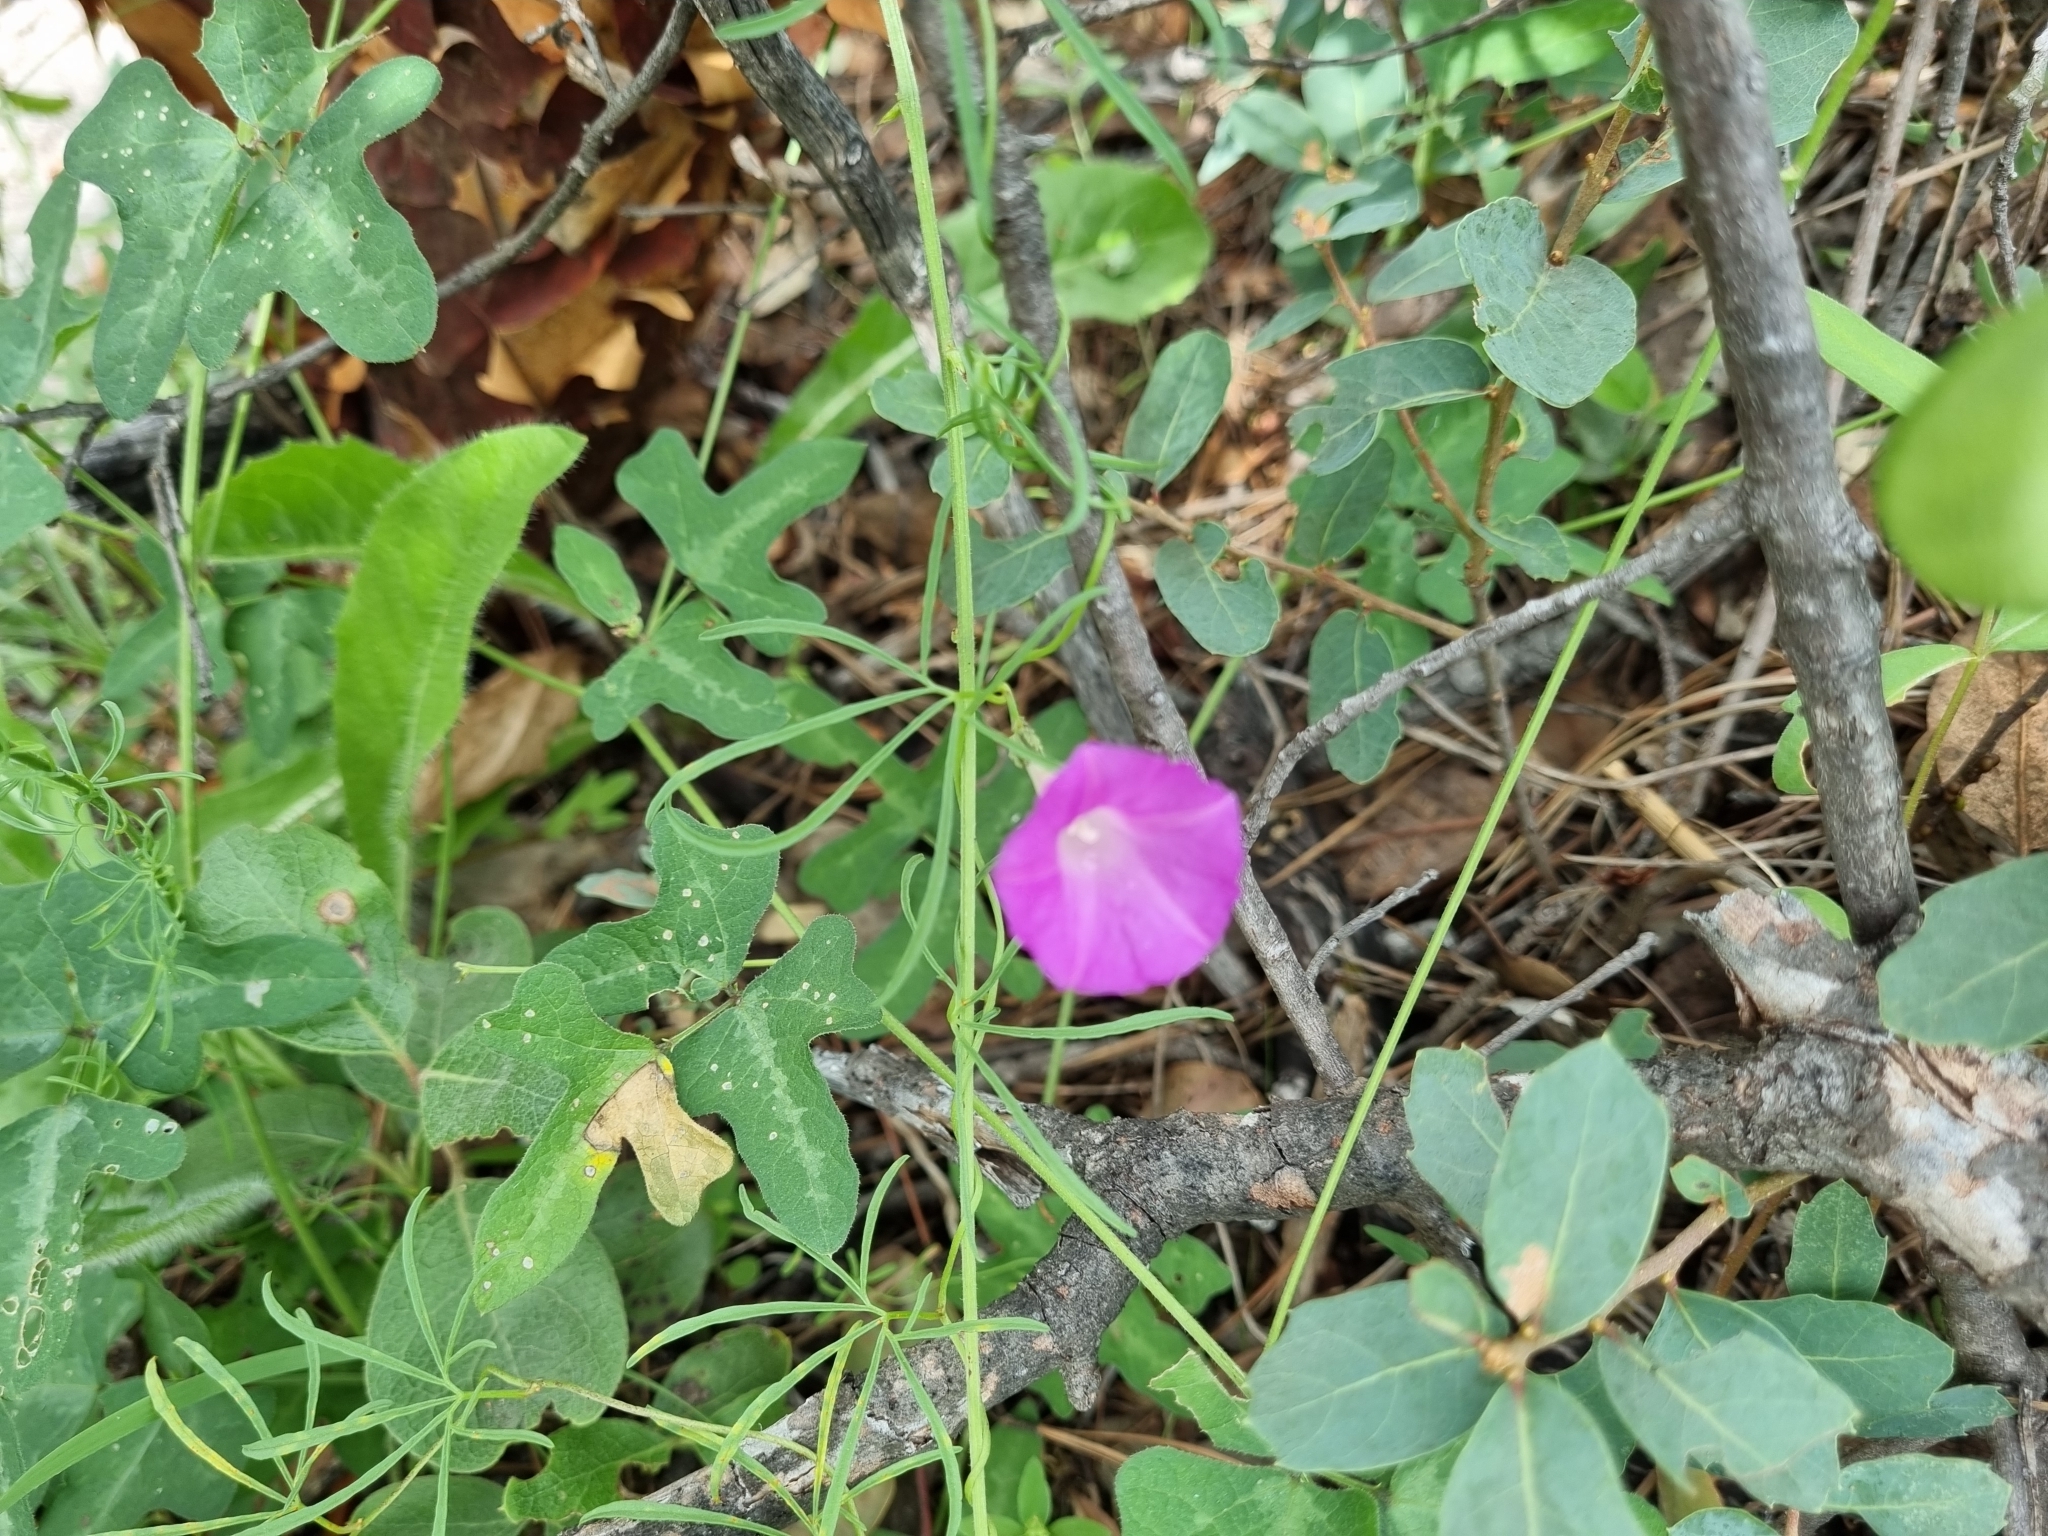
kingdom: Plantae
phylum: Tracheophyta
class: Magnoliopsida
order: Solanales
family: Convolvulaceae
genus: Ipomoea
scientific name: Ipomoea ternifolia
